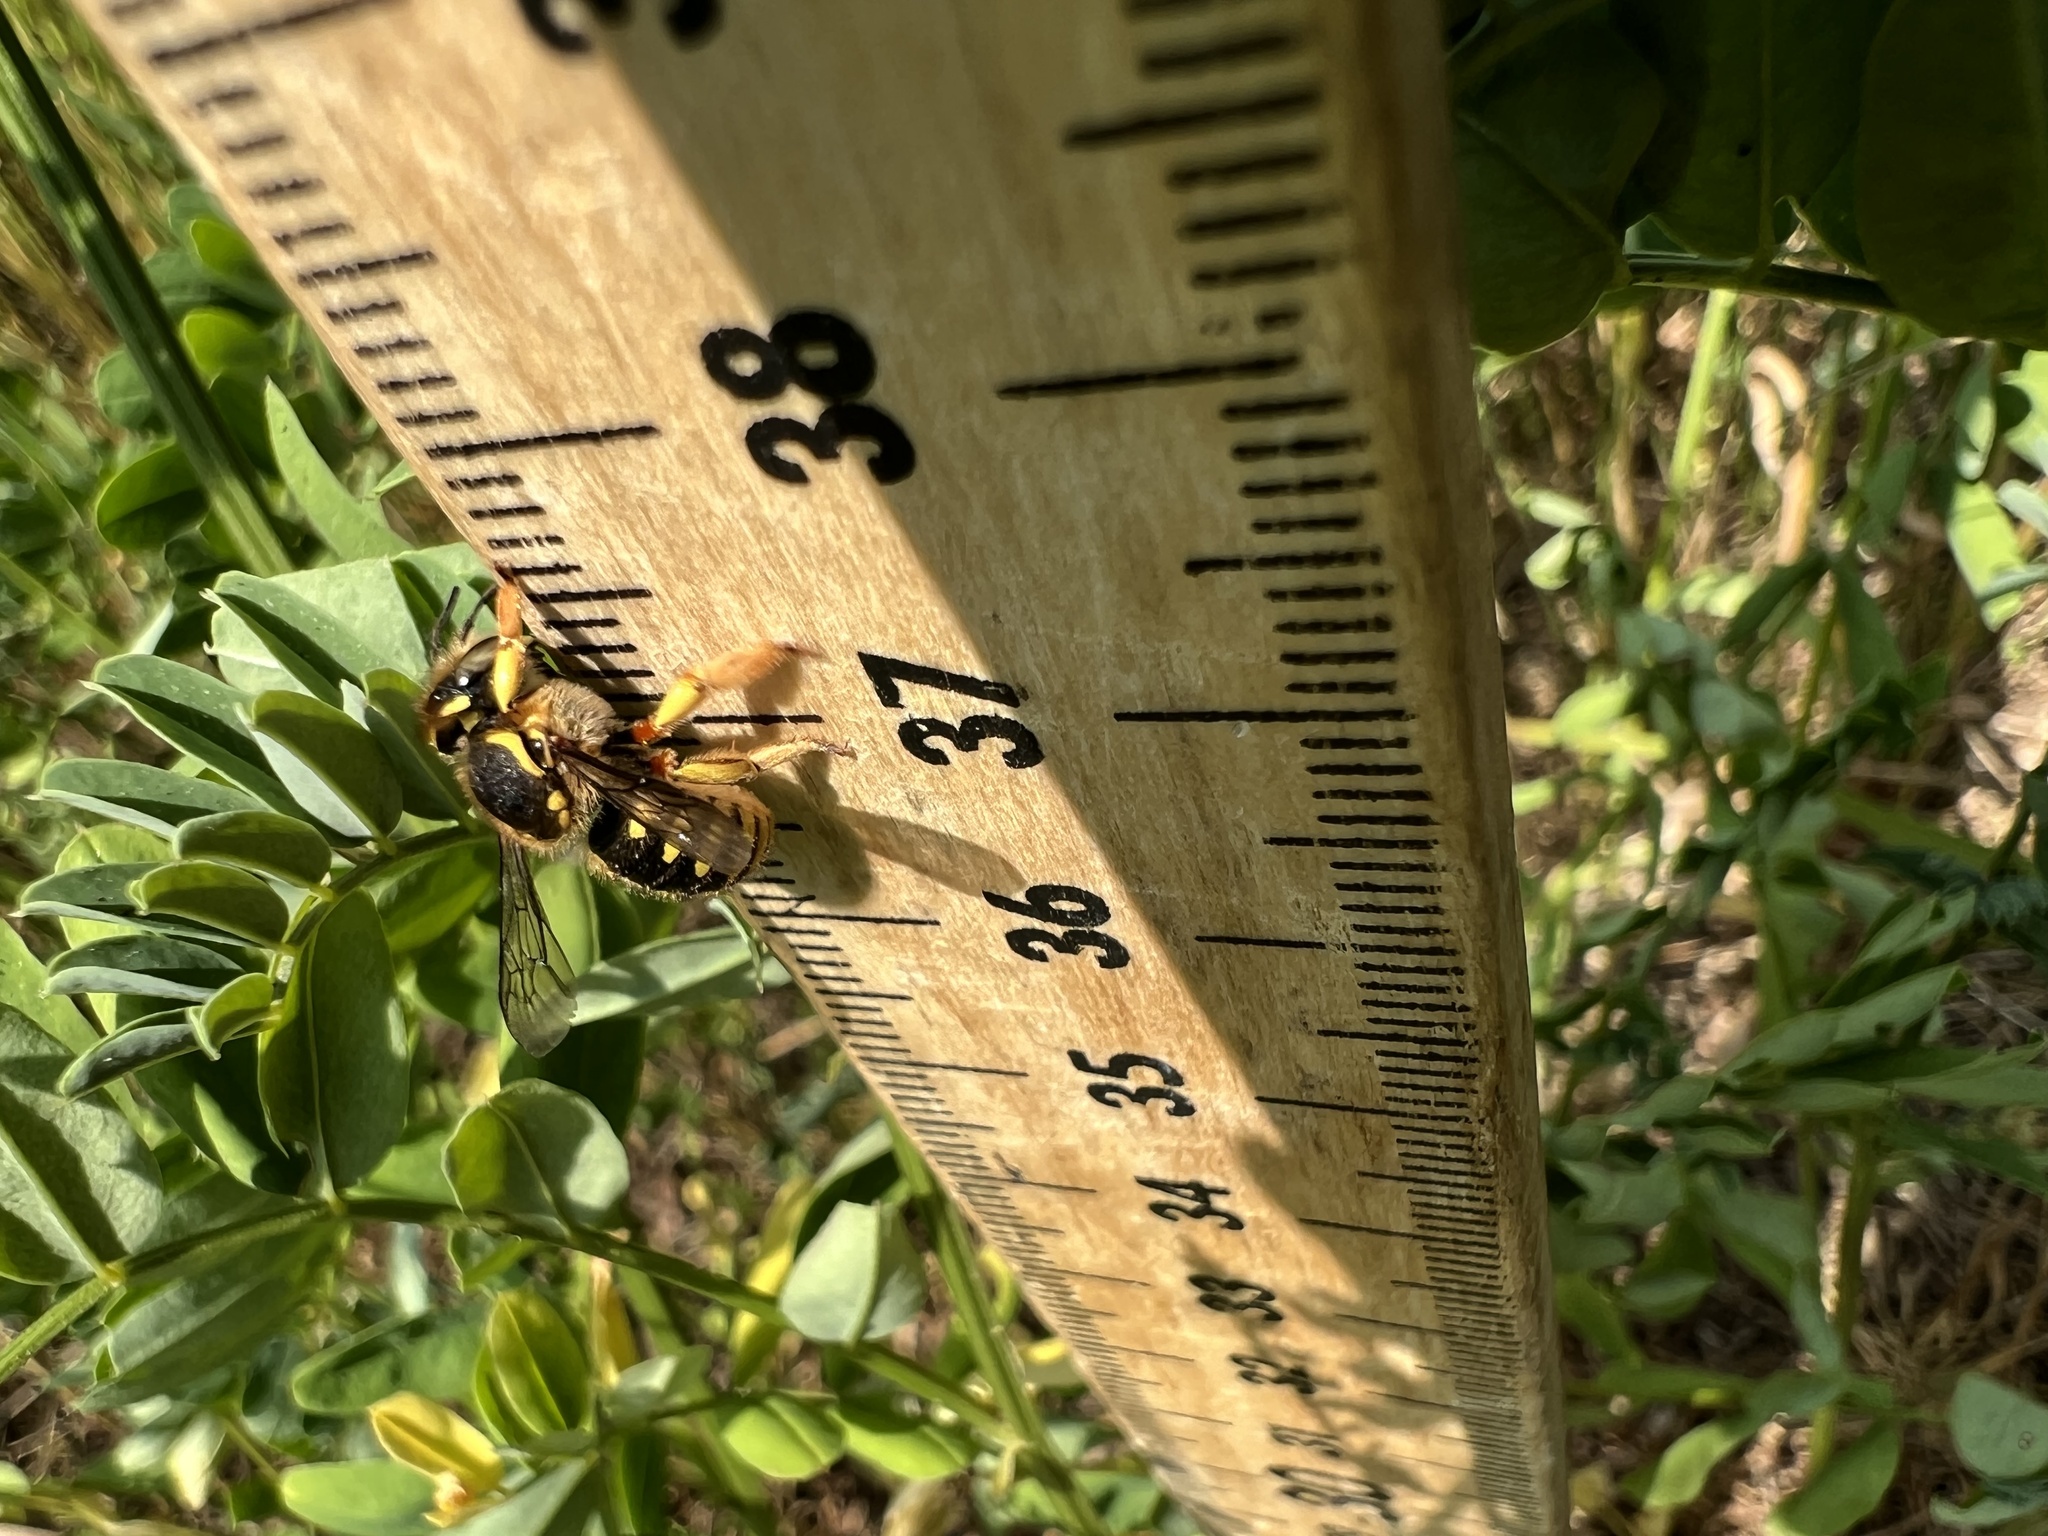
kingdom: Animalia
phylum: Arthropoda
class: Insecta
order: Hymenoptera
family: Megachilidae
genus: Anthidium
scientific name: Anthidium manicatum
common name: Wool carder bee
